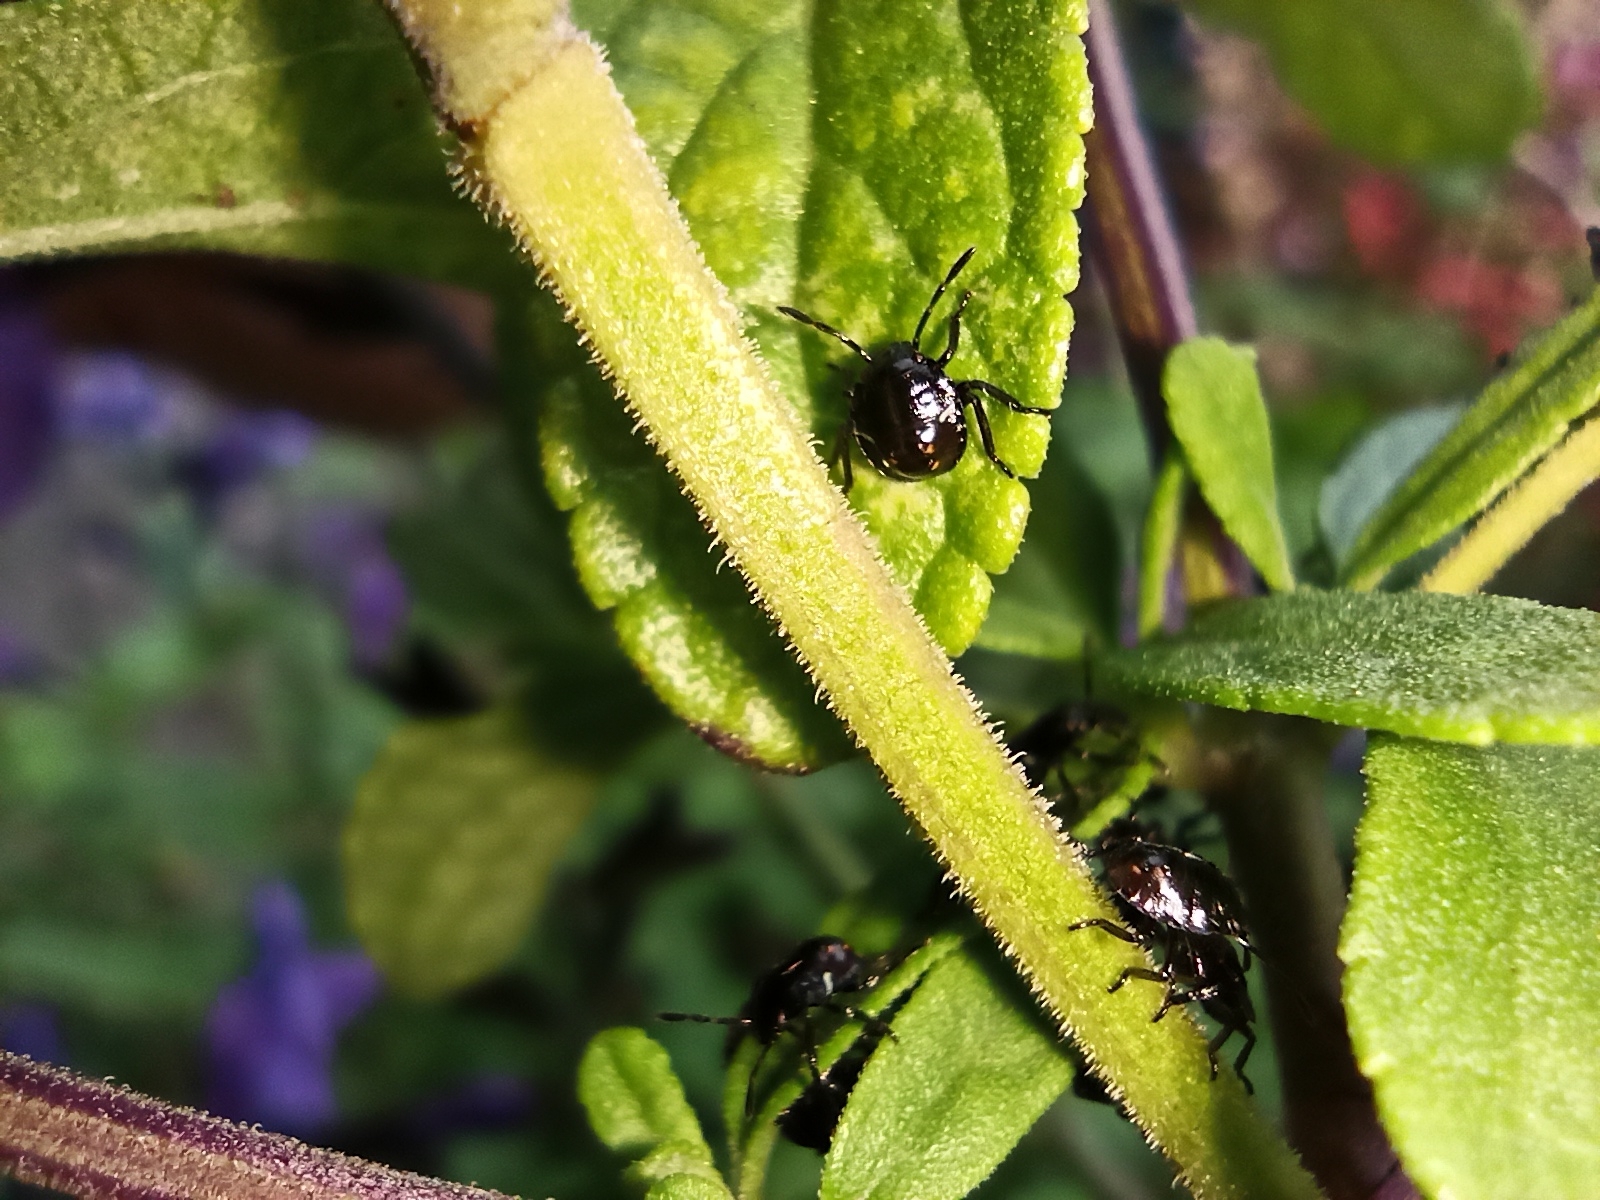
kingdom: Animalia
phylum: Arthropoda
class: Insecta
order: Hemiptera
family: Pentatomidae
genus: Nezara
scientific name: Nezara viridula
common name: Southern green stink bug
